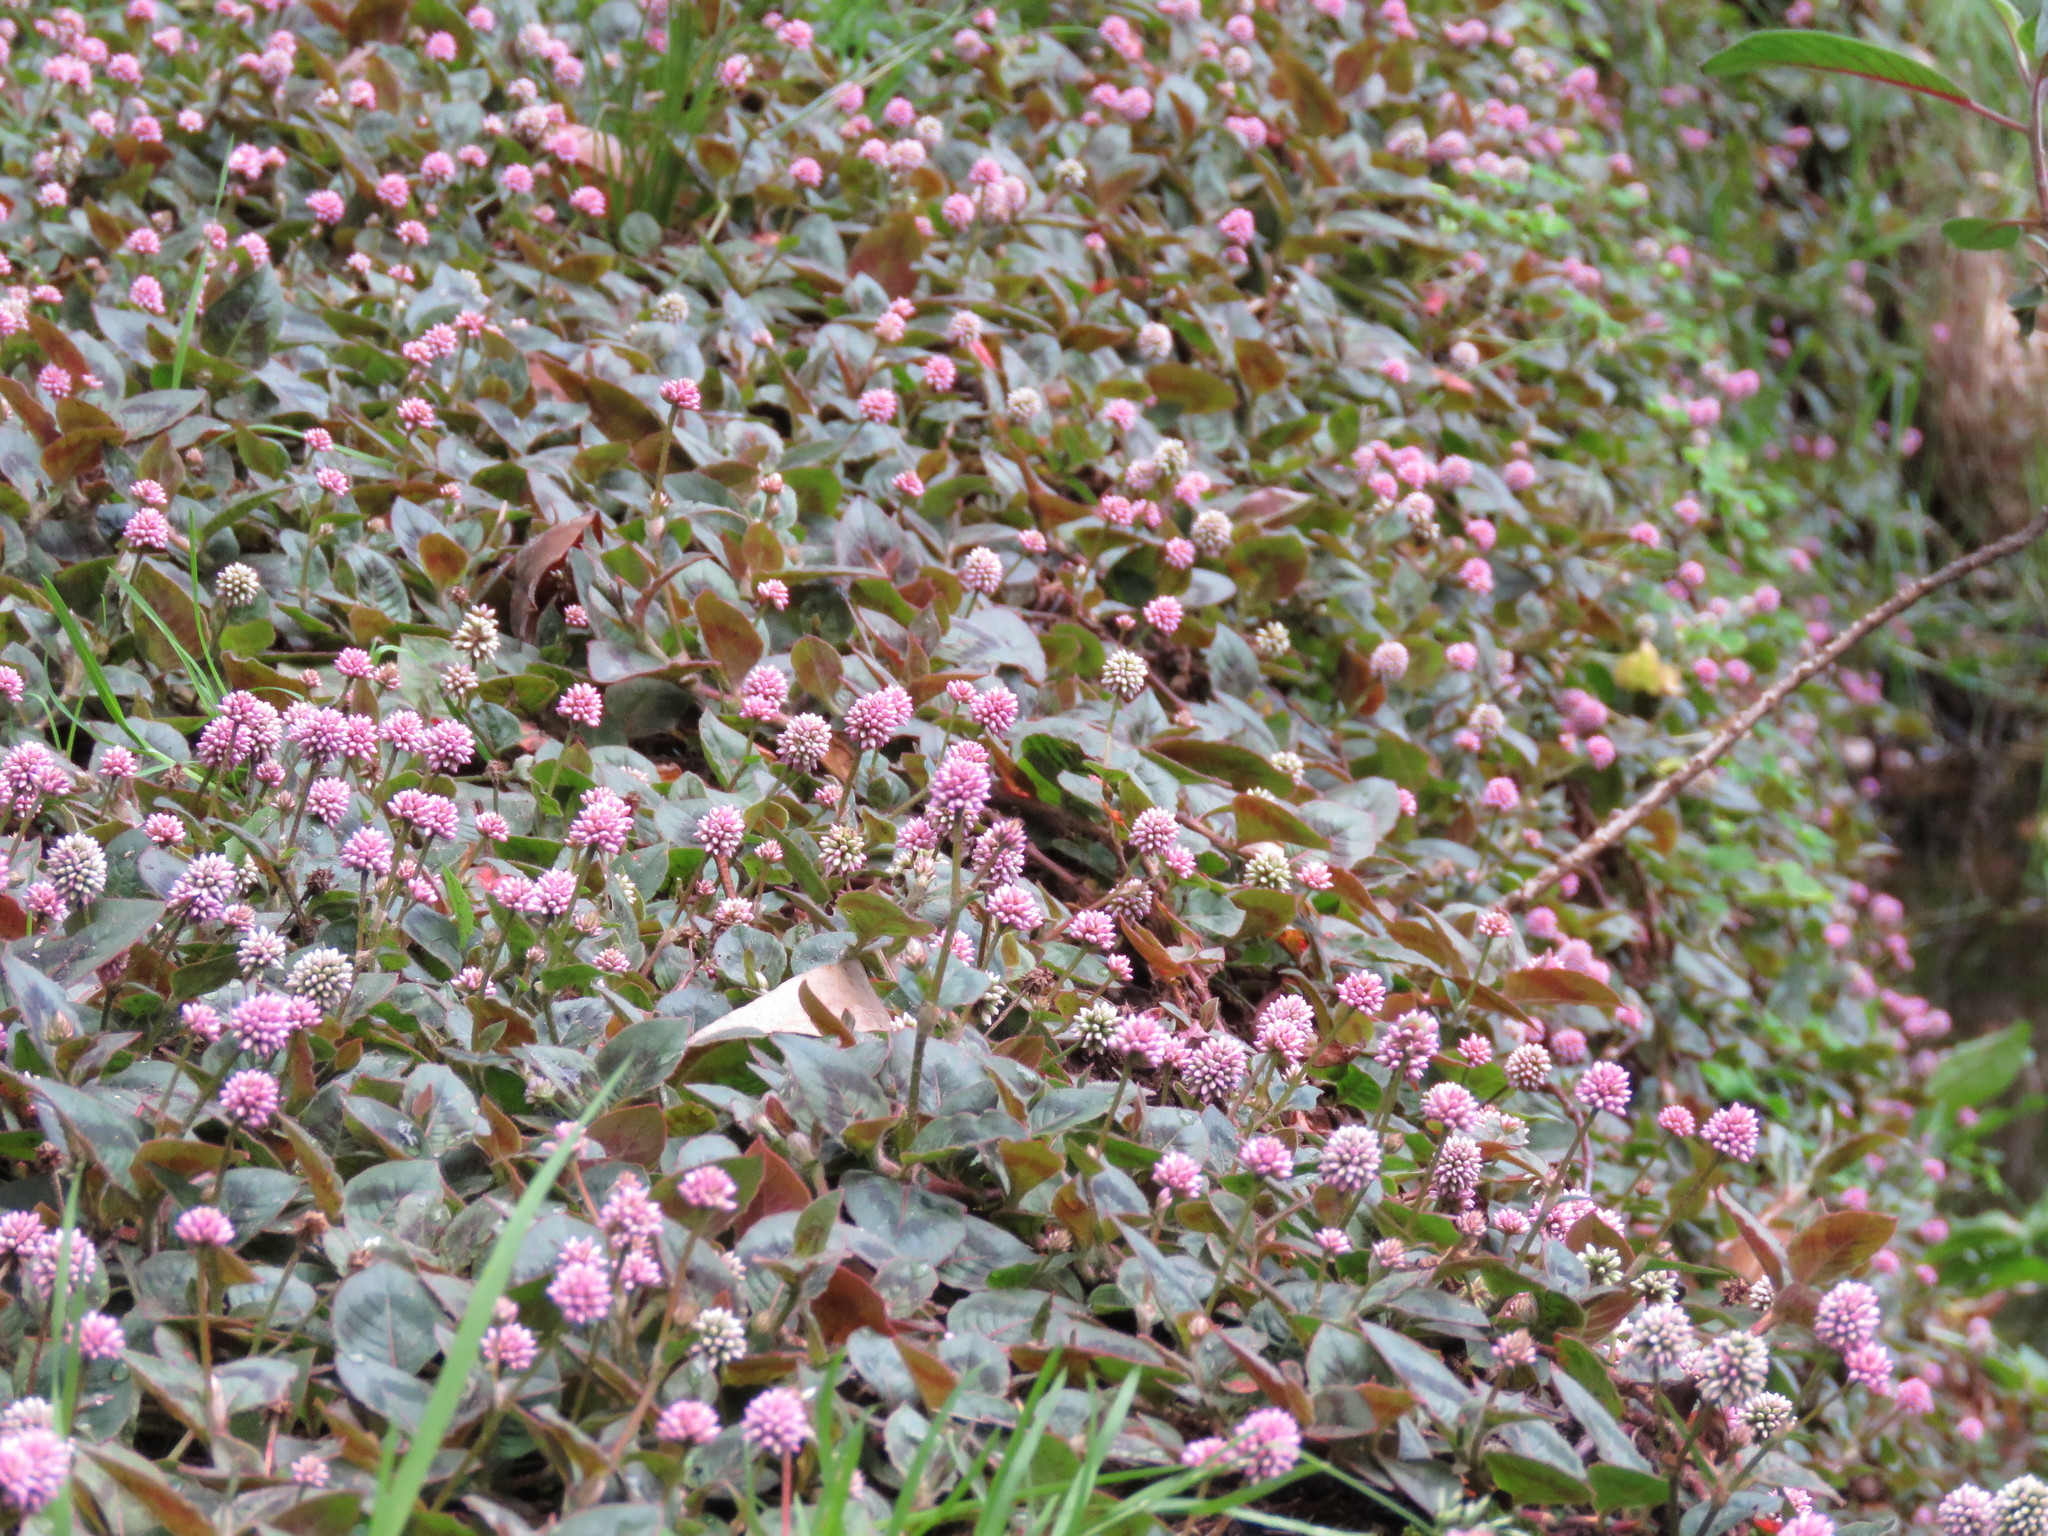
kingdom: Plantae
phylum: Tracheophyta
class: Magnoliopsida
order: Caryophyllales
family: Polygonaceae
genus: Persicaria
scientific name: Persicaria capitata
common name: Pinkhead smartweed
